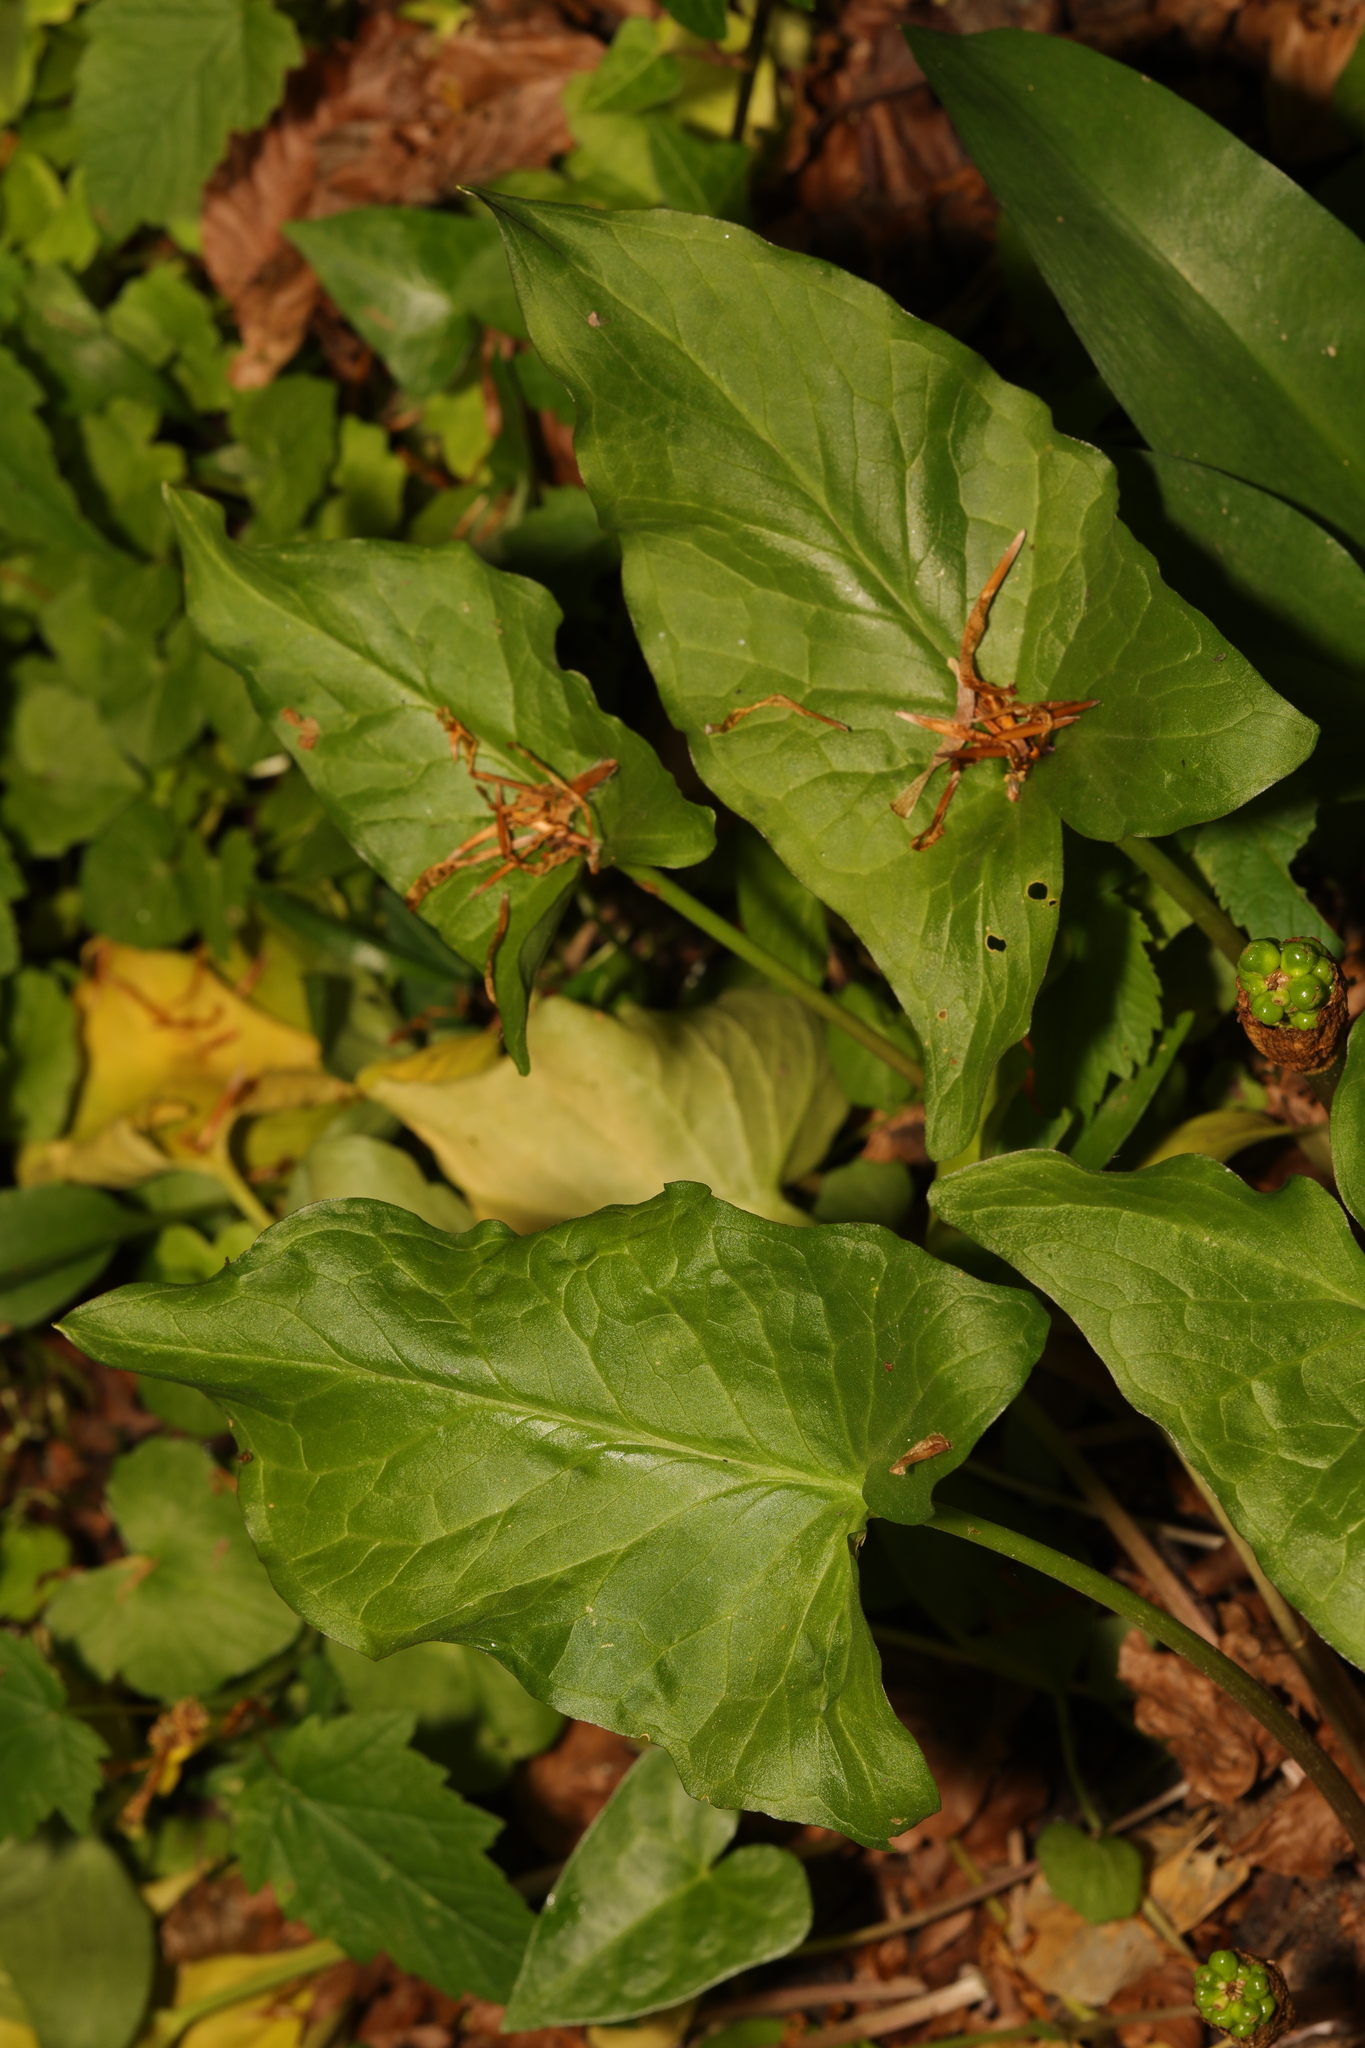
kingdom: Plantae
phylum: Tracheophyta
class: Liliopsida
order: Alismatales
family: Araceae
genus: Arum
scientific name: Arum maculatum
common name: Lords-and-ladies
